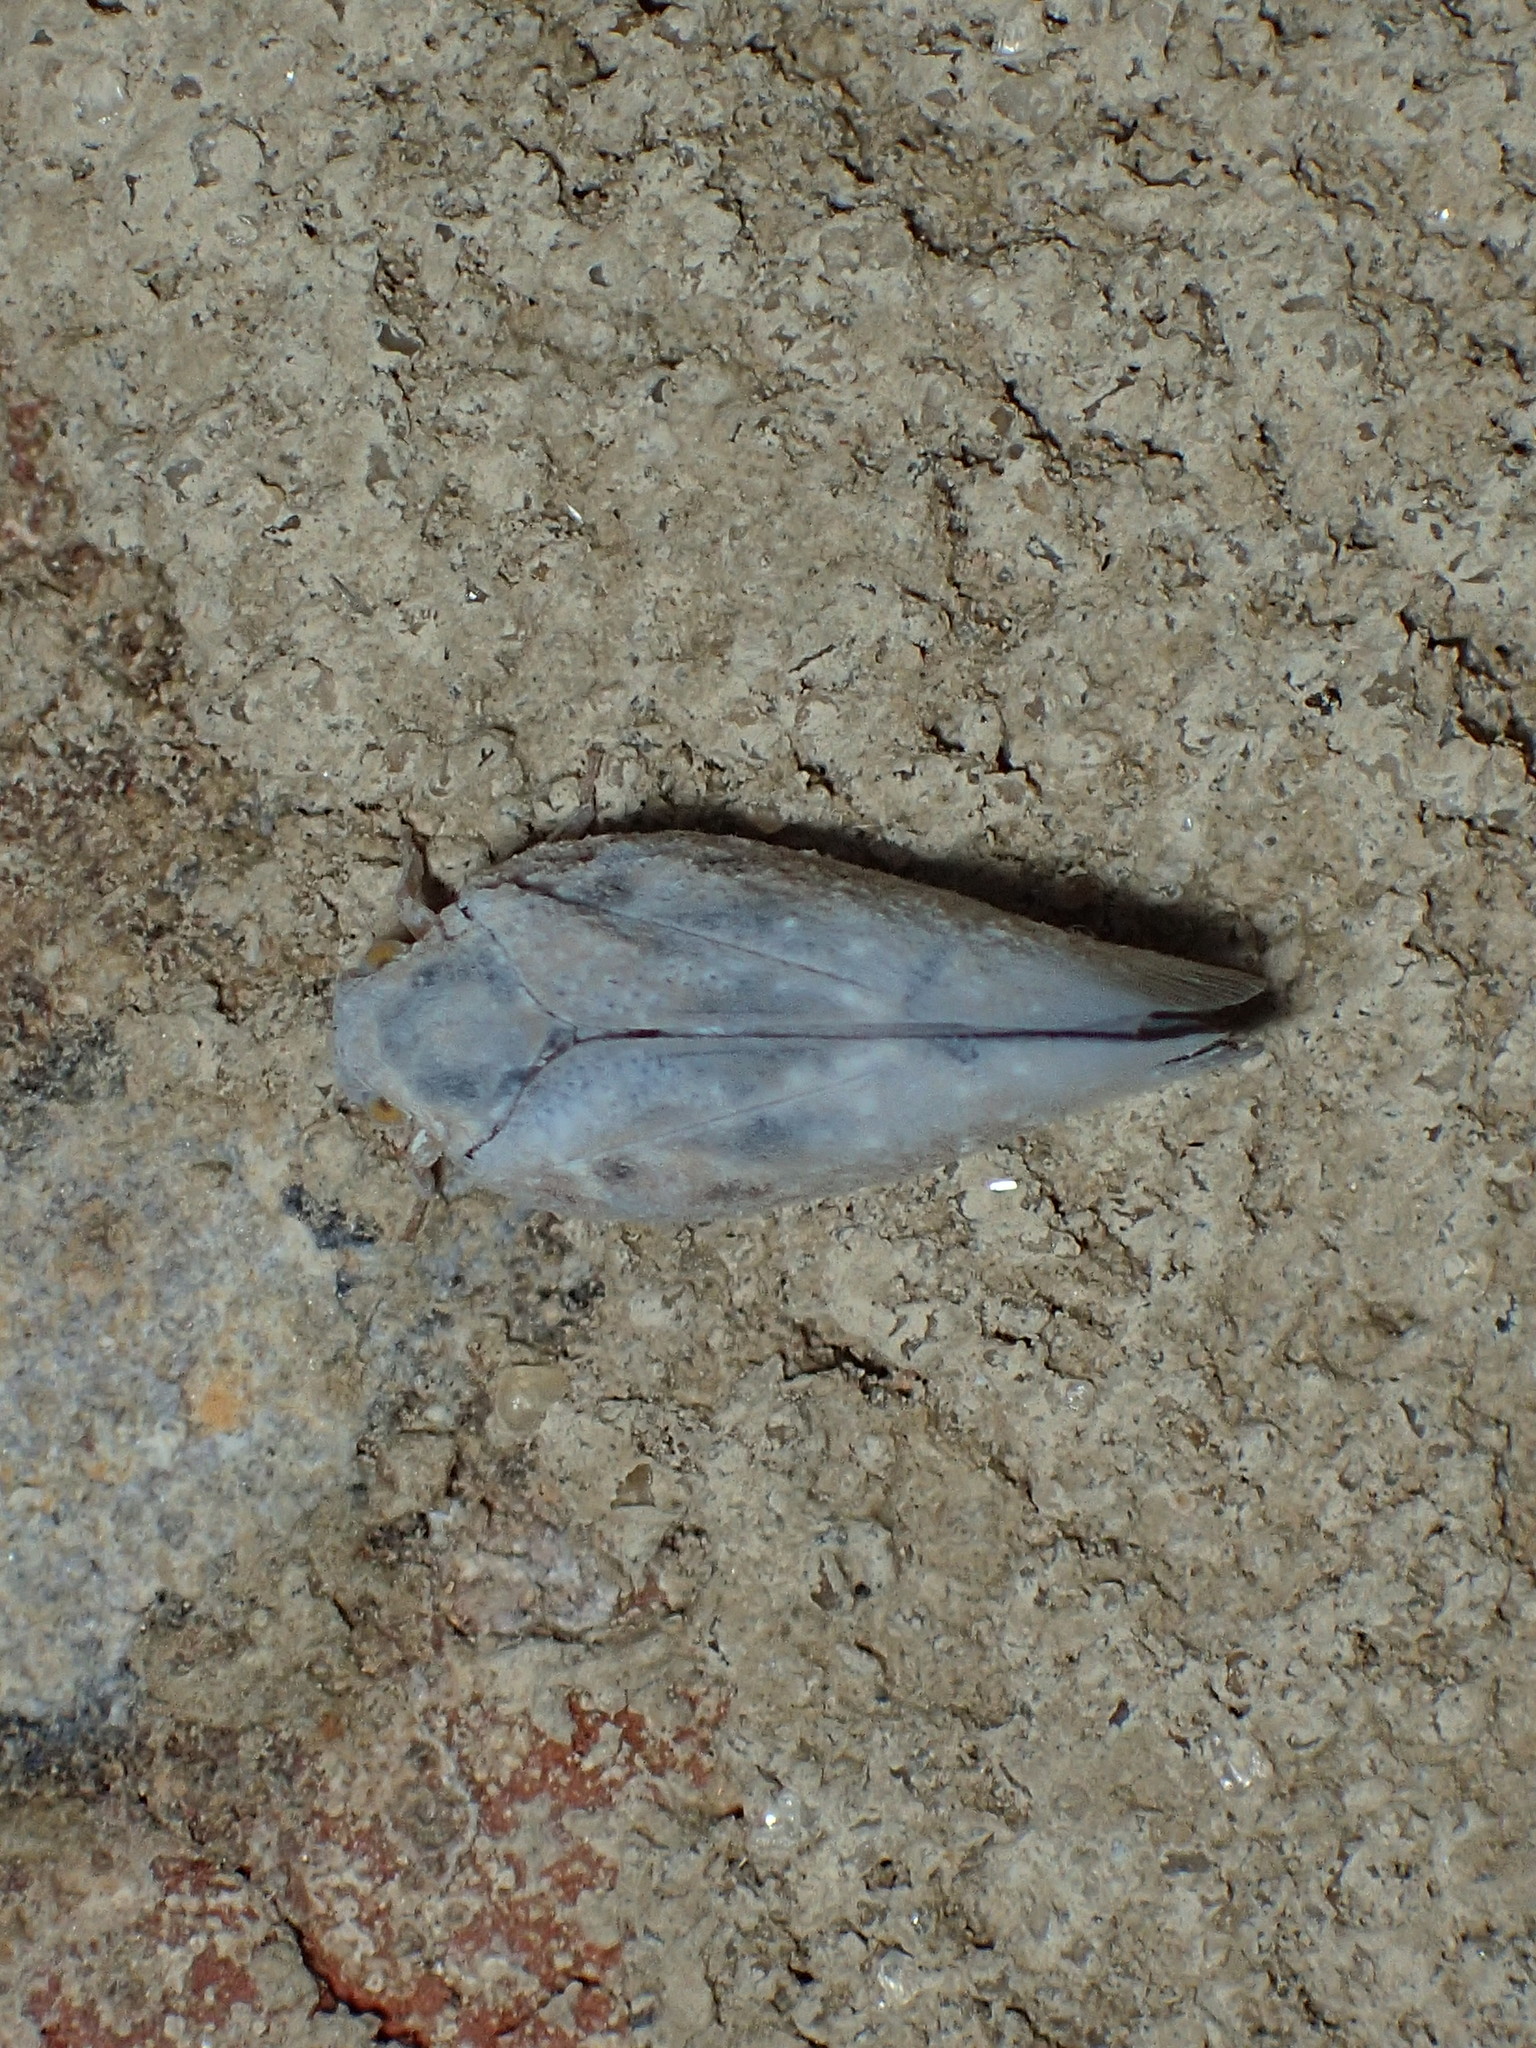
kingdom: Animalia
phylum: Arthropoda
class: Insecta
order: Hemiptera
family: Flatidae
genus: Metcalfa
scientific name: Metcalfa pruinosa
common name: Citrus flatid planthopper
